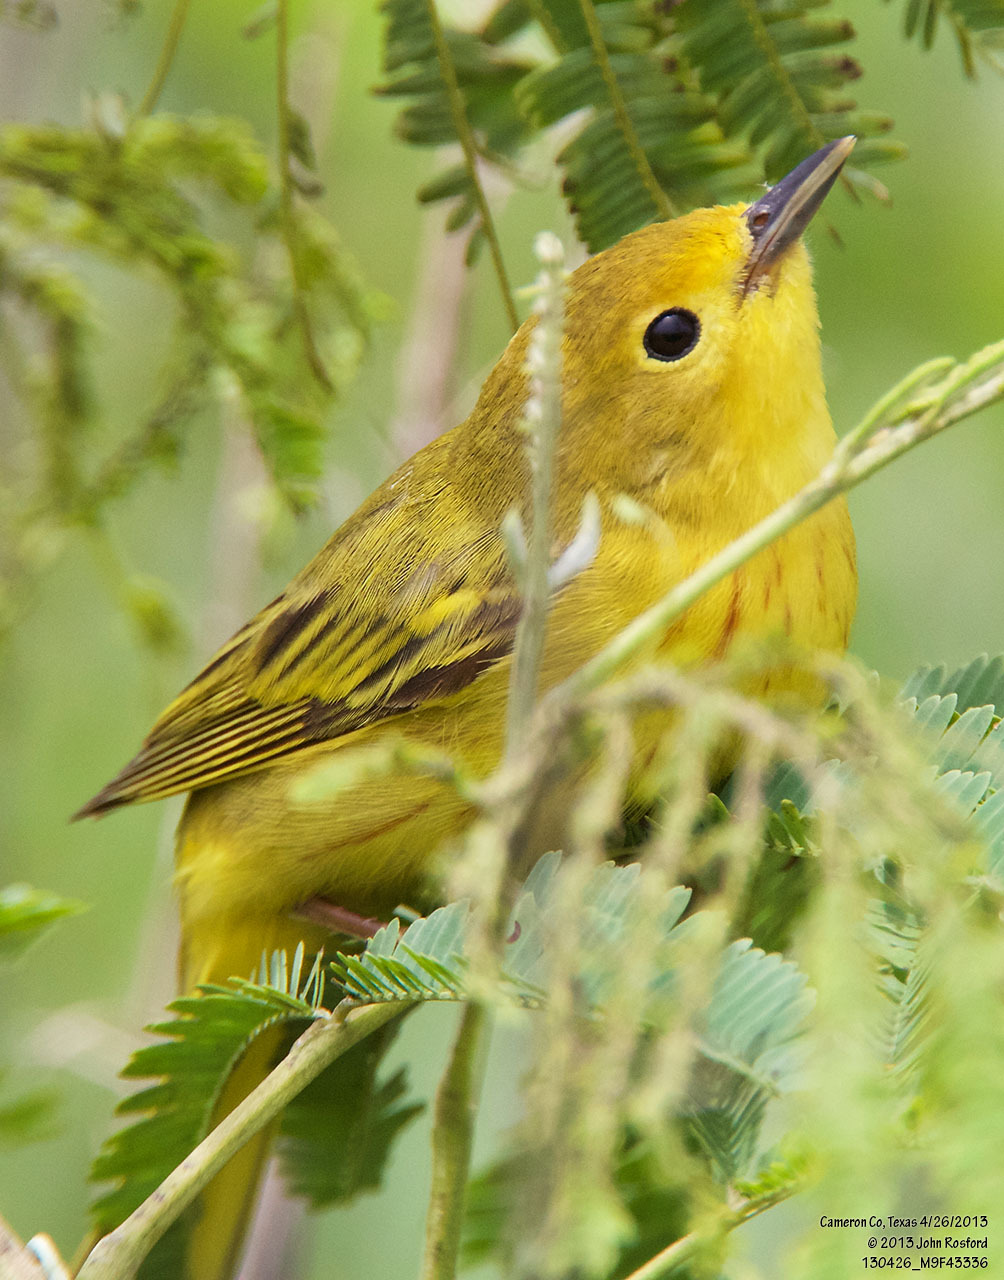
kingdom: Animalia
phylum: Chordata
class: Aves
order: Passeriformes
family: Parulidae
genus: Setophaga
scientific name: Setophaga petechia
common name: Yellow warbler
